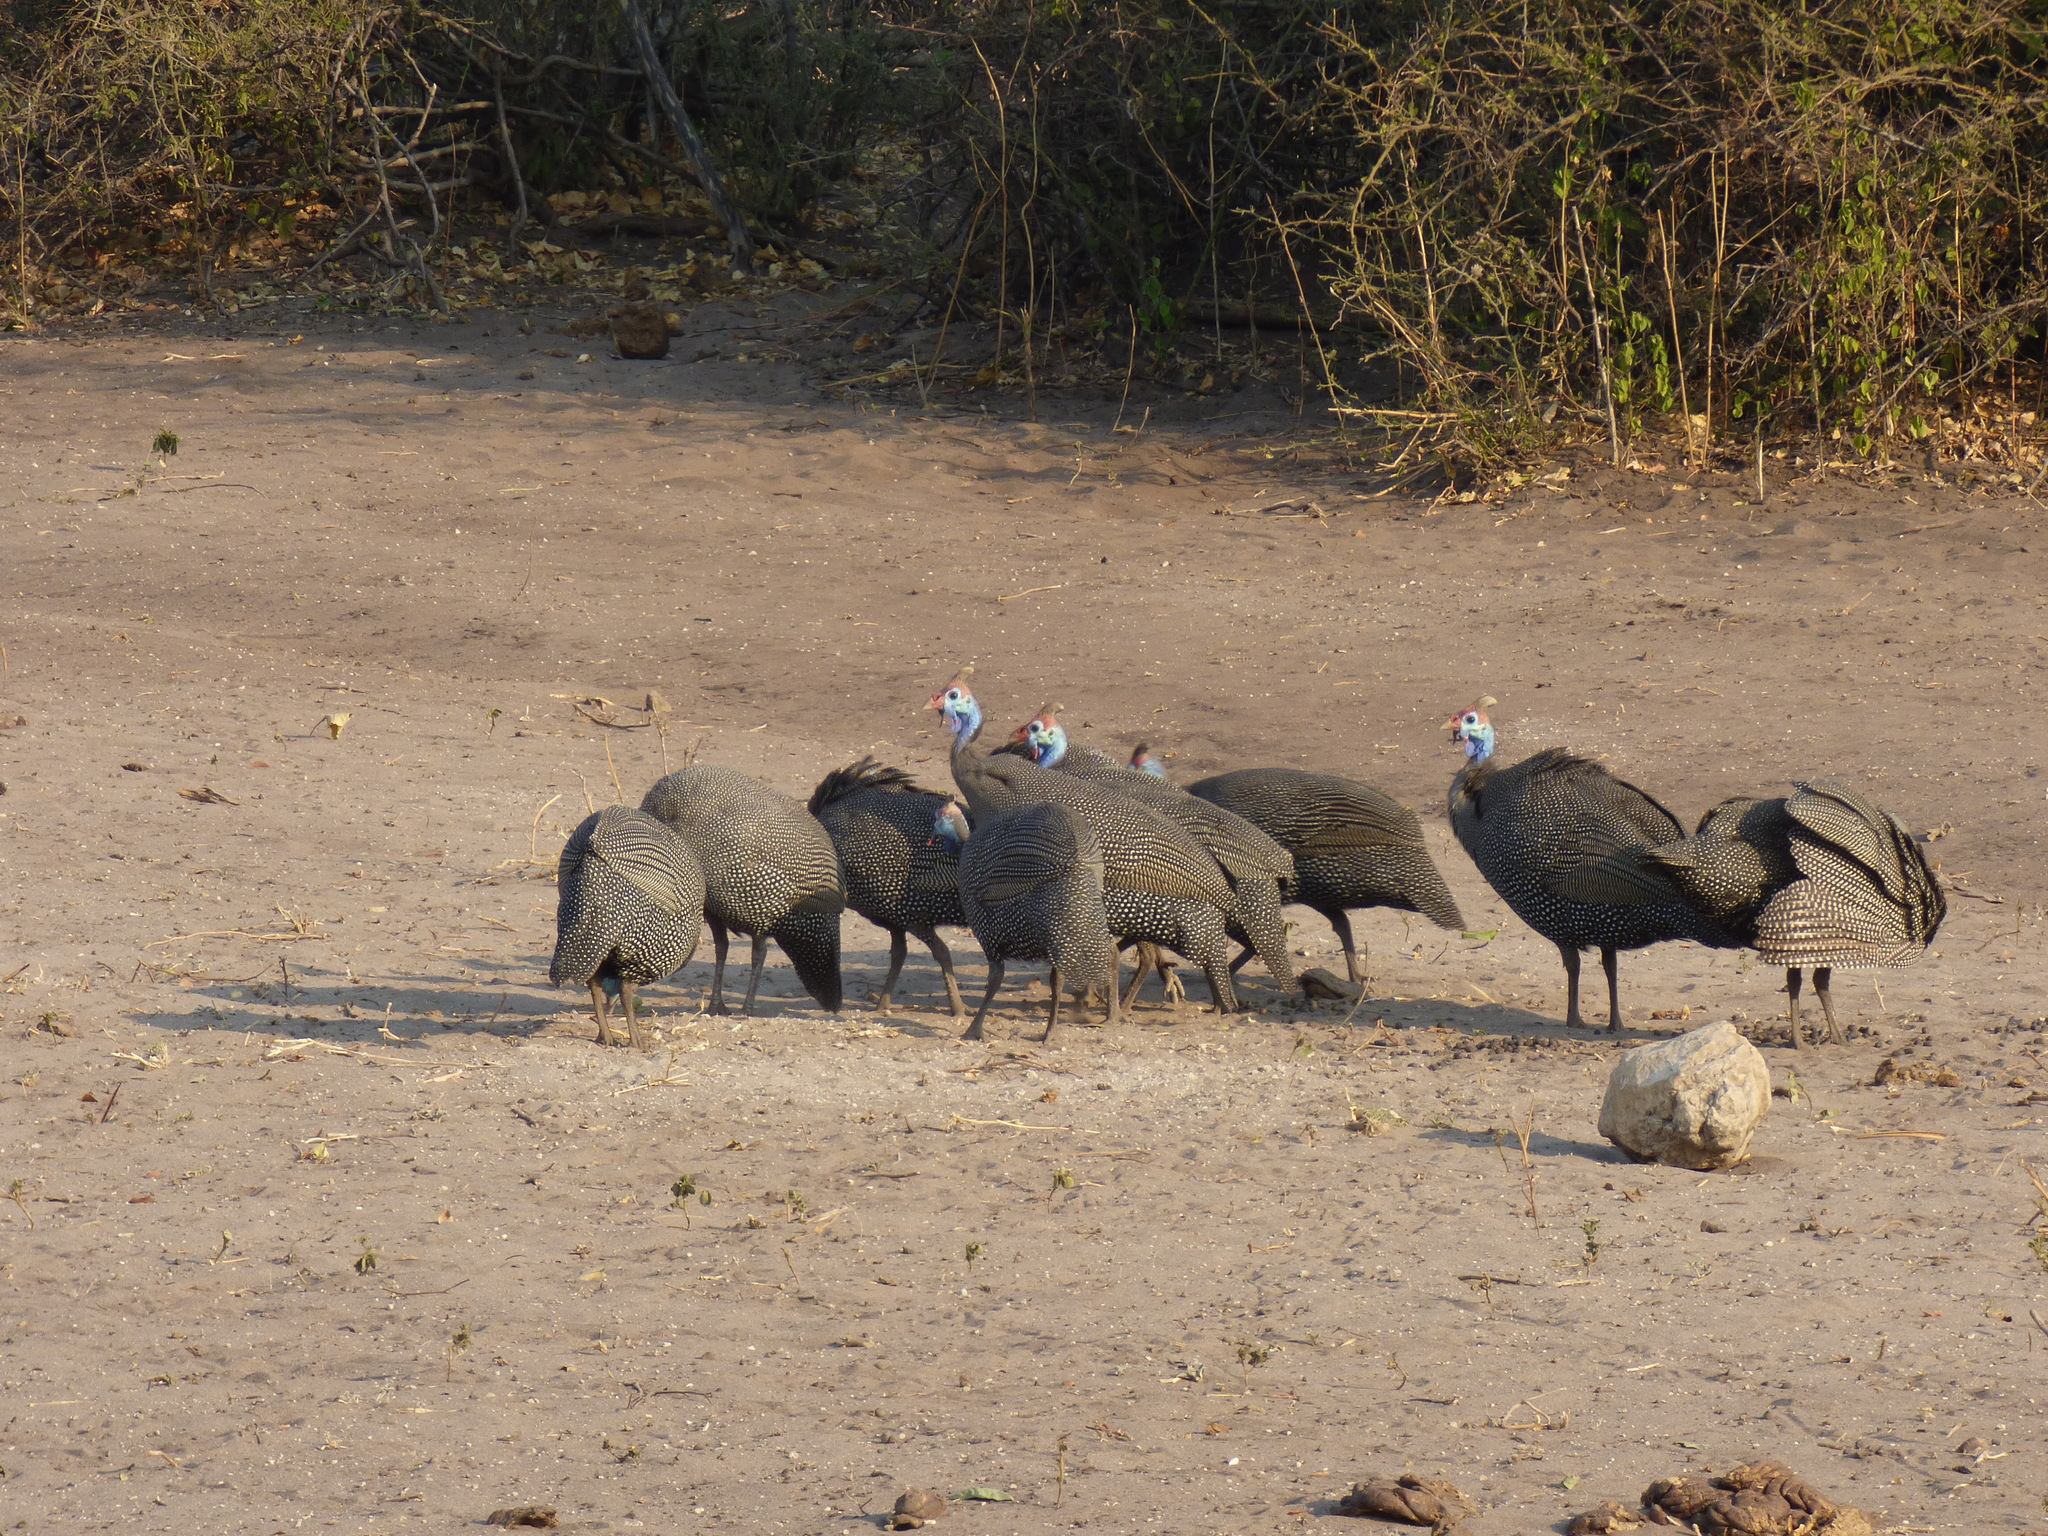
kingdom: Animalia
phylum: Chordata
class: Aves
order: Galliformes
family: Numididae
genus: Numida
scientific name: Numida meleagris
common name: Helmeted guineafowl
